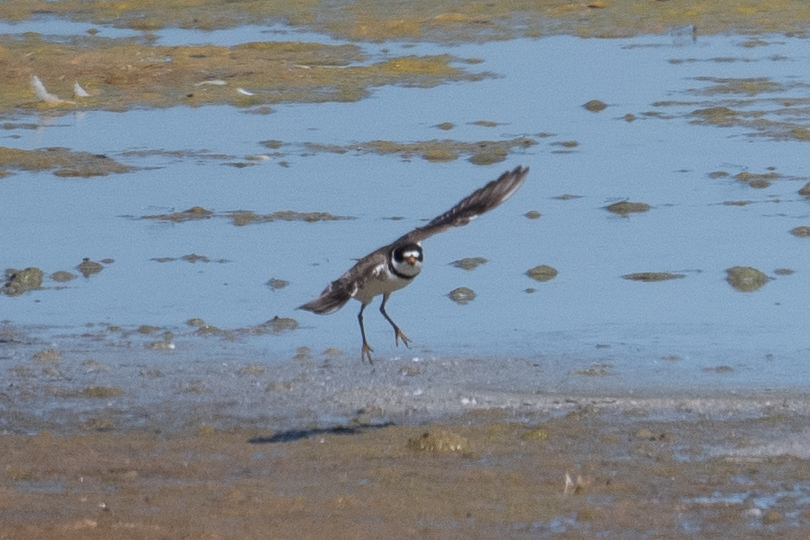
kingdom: Animalia
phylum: Chordata
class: Aves
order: Charadriiformes
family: Charadriidae
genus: Charadrius
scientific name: Charadrius semipalmatus
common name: Semipalmated plover
